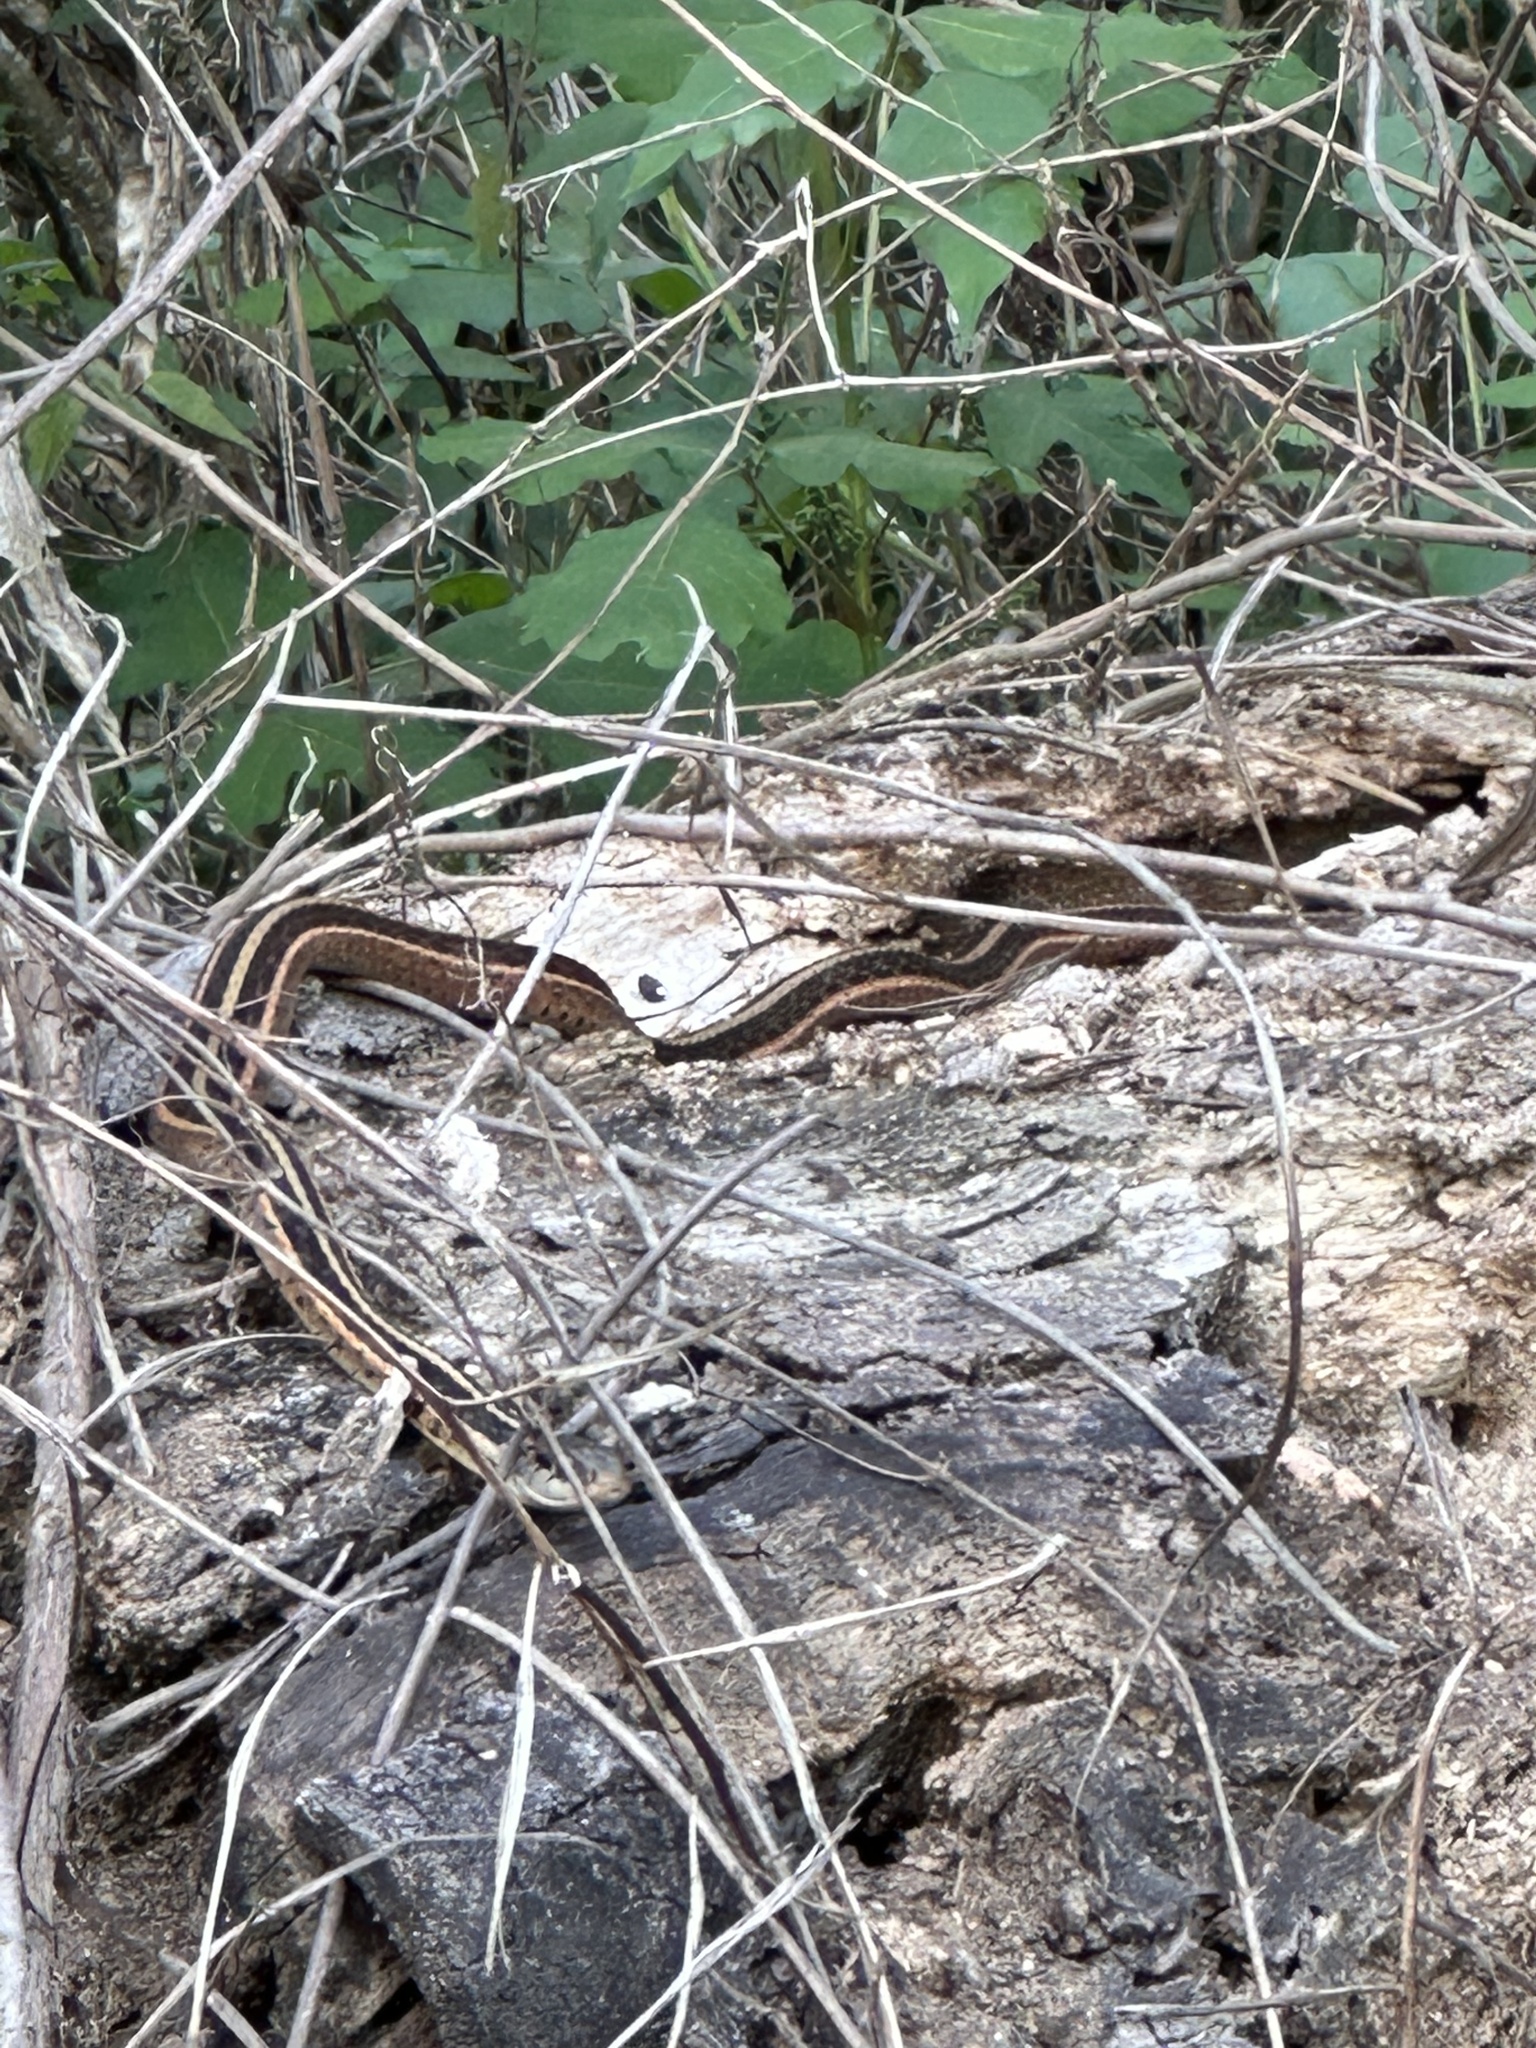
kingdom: Animalia
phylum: Chordata
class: Squamata
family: Colubridae
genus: Thamnophis
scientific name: Thamnophis sirtalis
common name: Common garter snake
